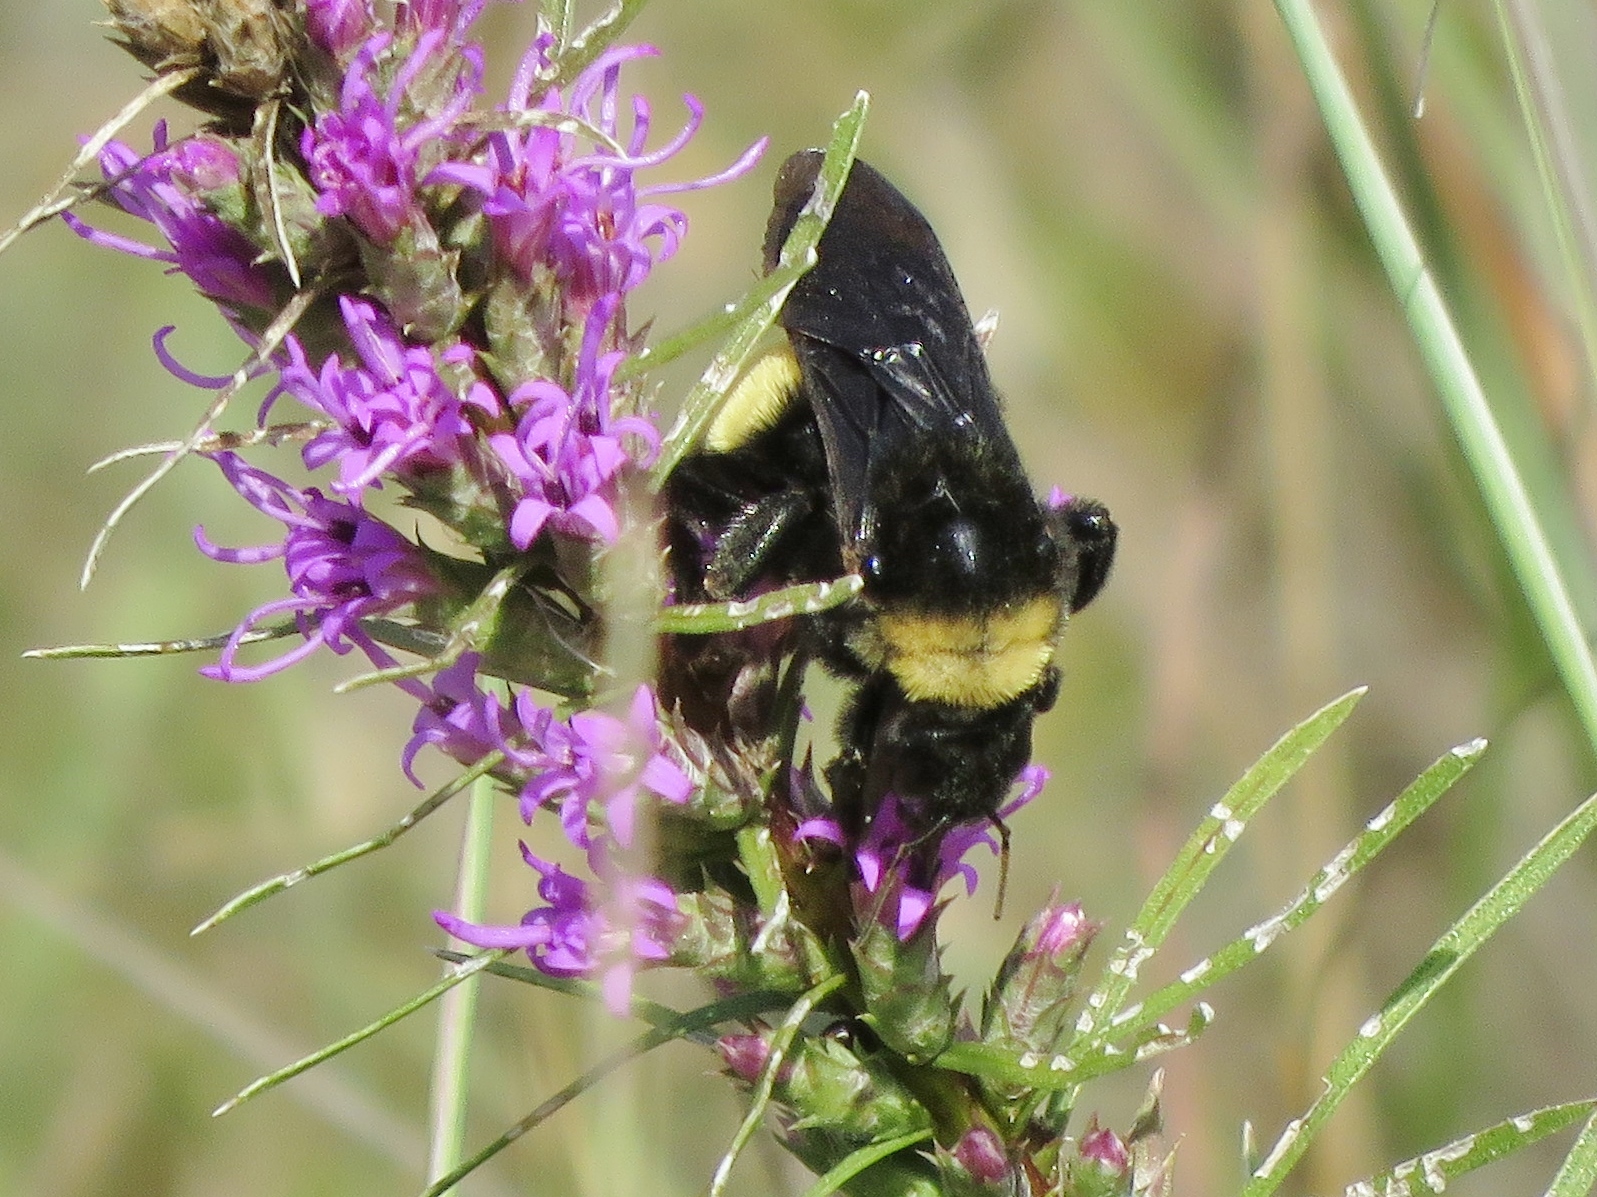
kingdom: Animalia
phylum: Arthropoda
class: Insecta
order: Hymenoptera
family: Apidae
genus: Bombus
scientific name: Bombus pensylvanicus
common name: Bumble bee
